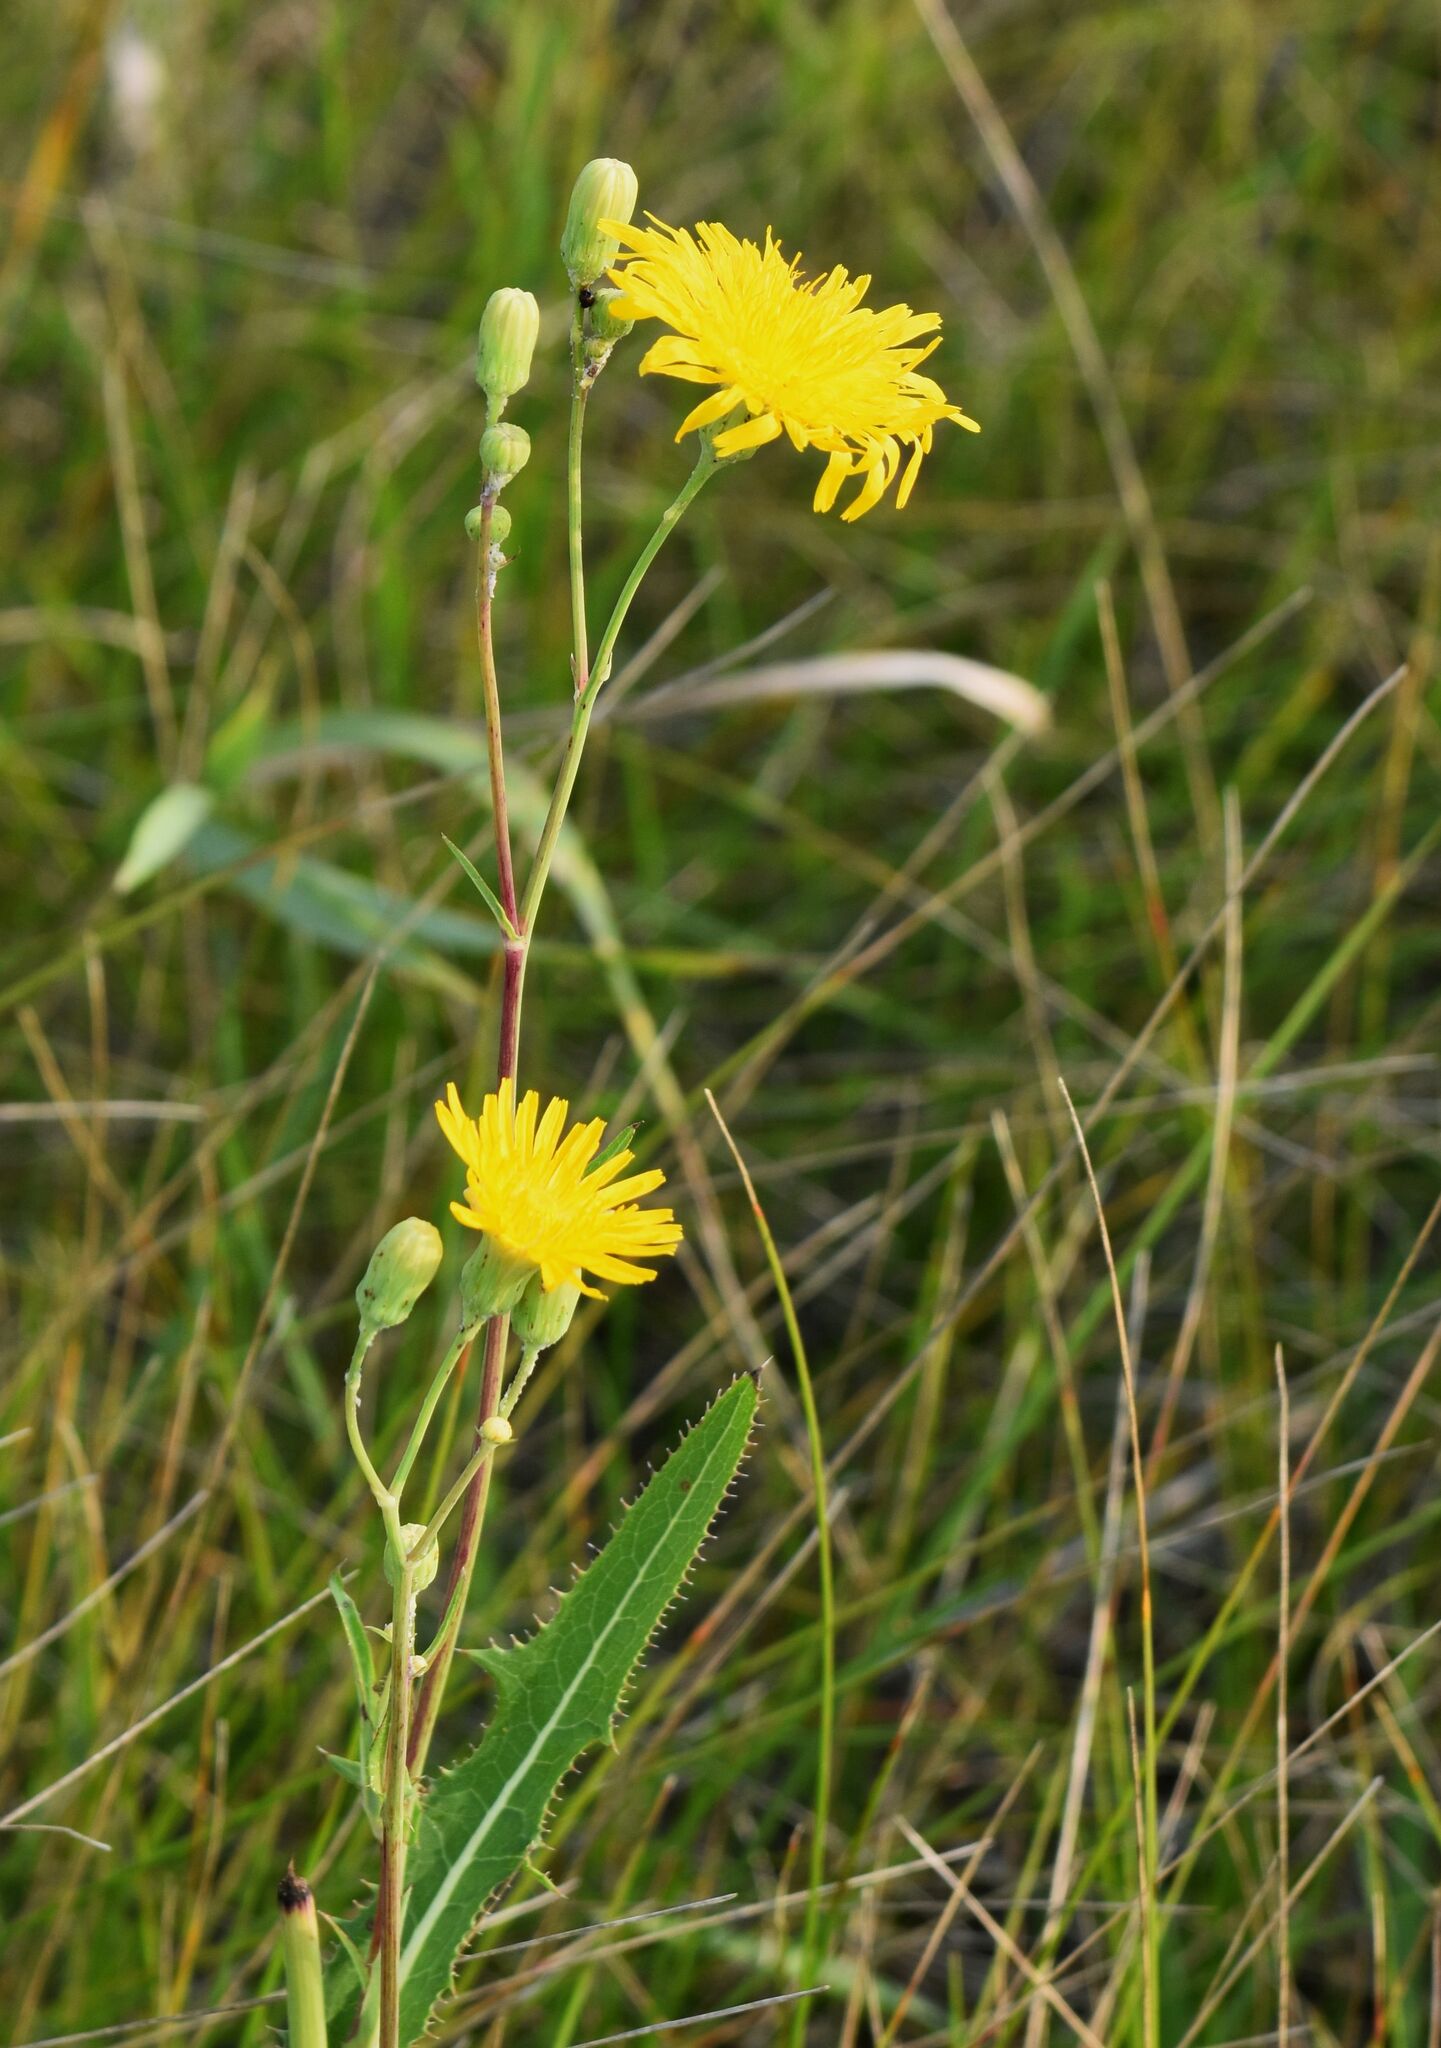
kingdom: Plantae
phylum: Tracheophyta
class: Magnoliopsida
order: Asterales
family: Asteraceae
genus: Sonchus
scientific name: Sonchus arvensis
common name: Perennial sow-thistle
